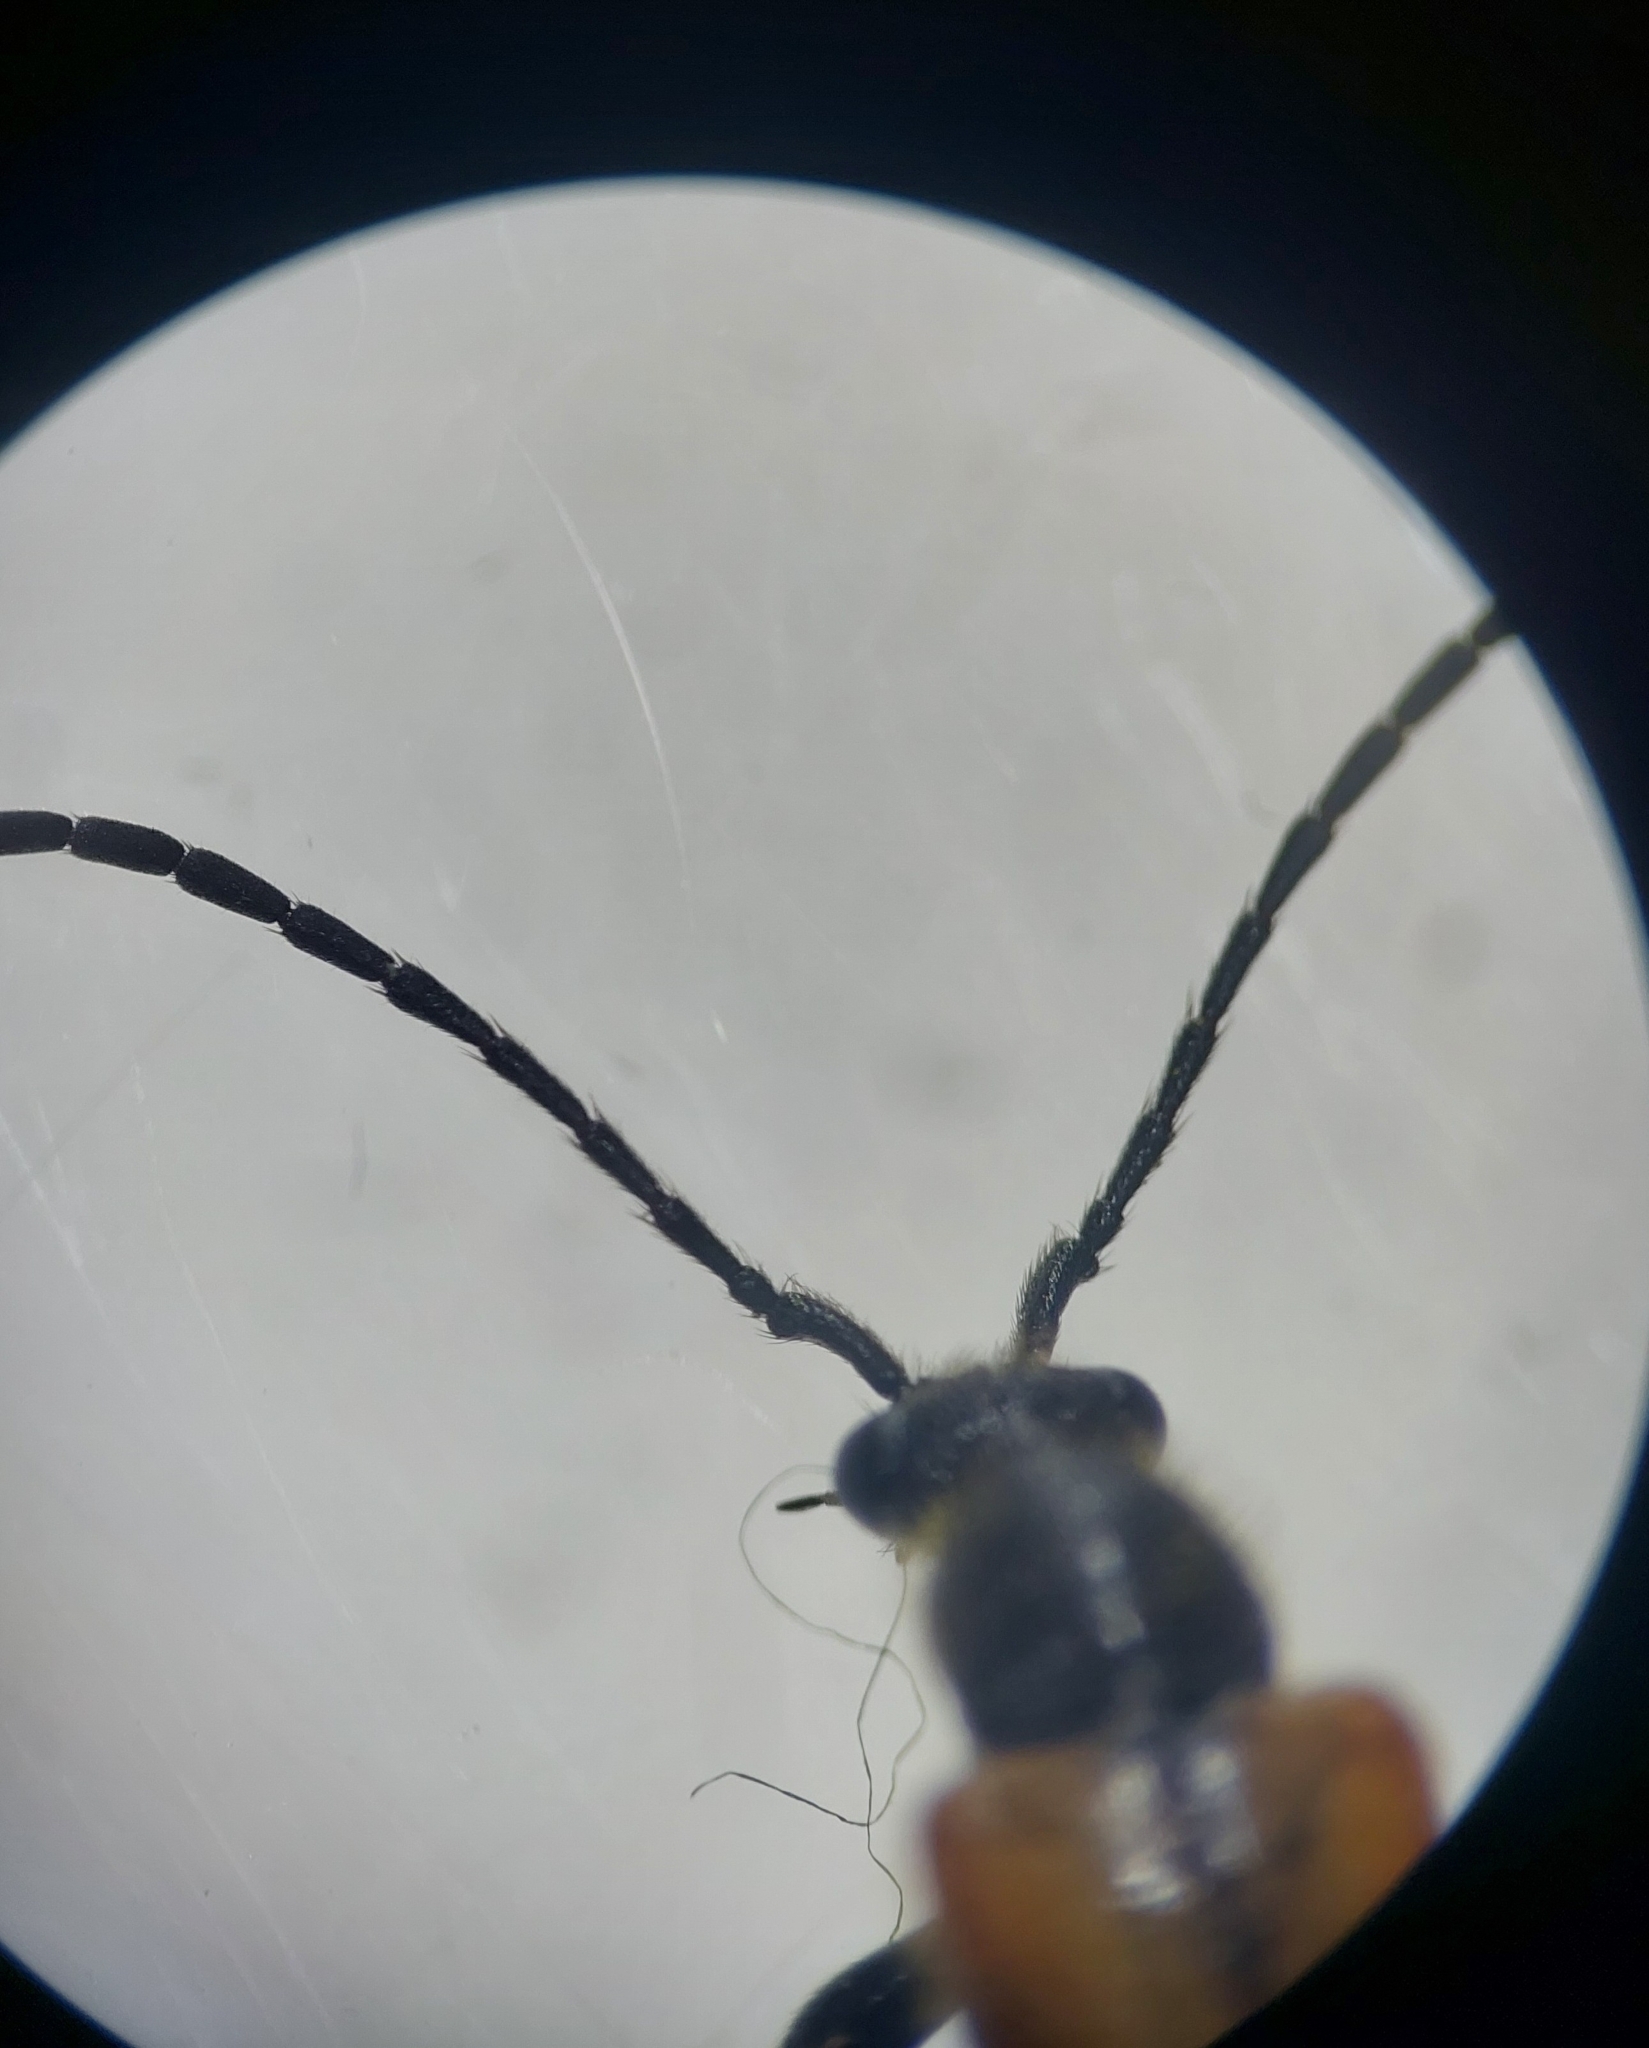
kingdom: Animalia
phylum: Arthropoda
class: Insecta
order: Coleoptera
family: Cerambycidae
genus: Pseudovadonia
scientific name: Pseudovadonia livida
